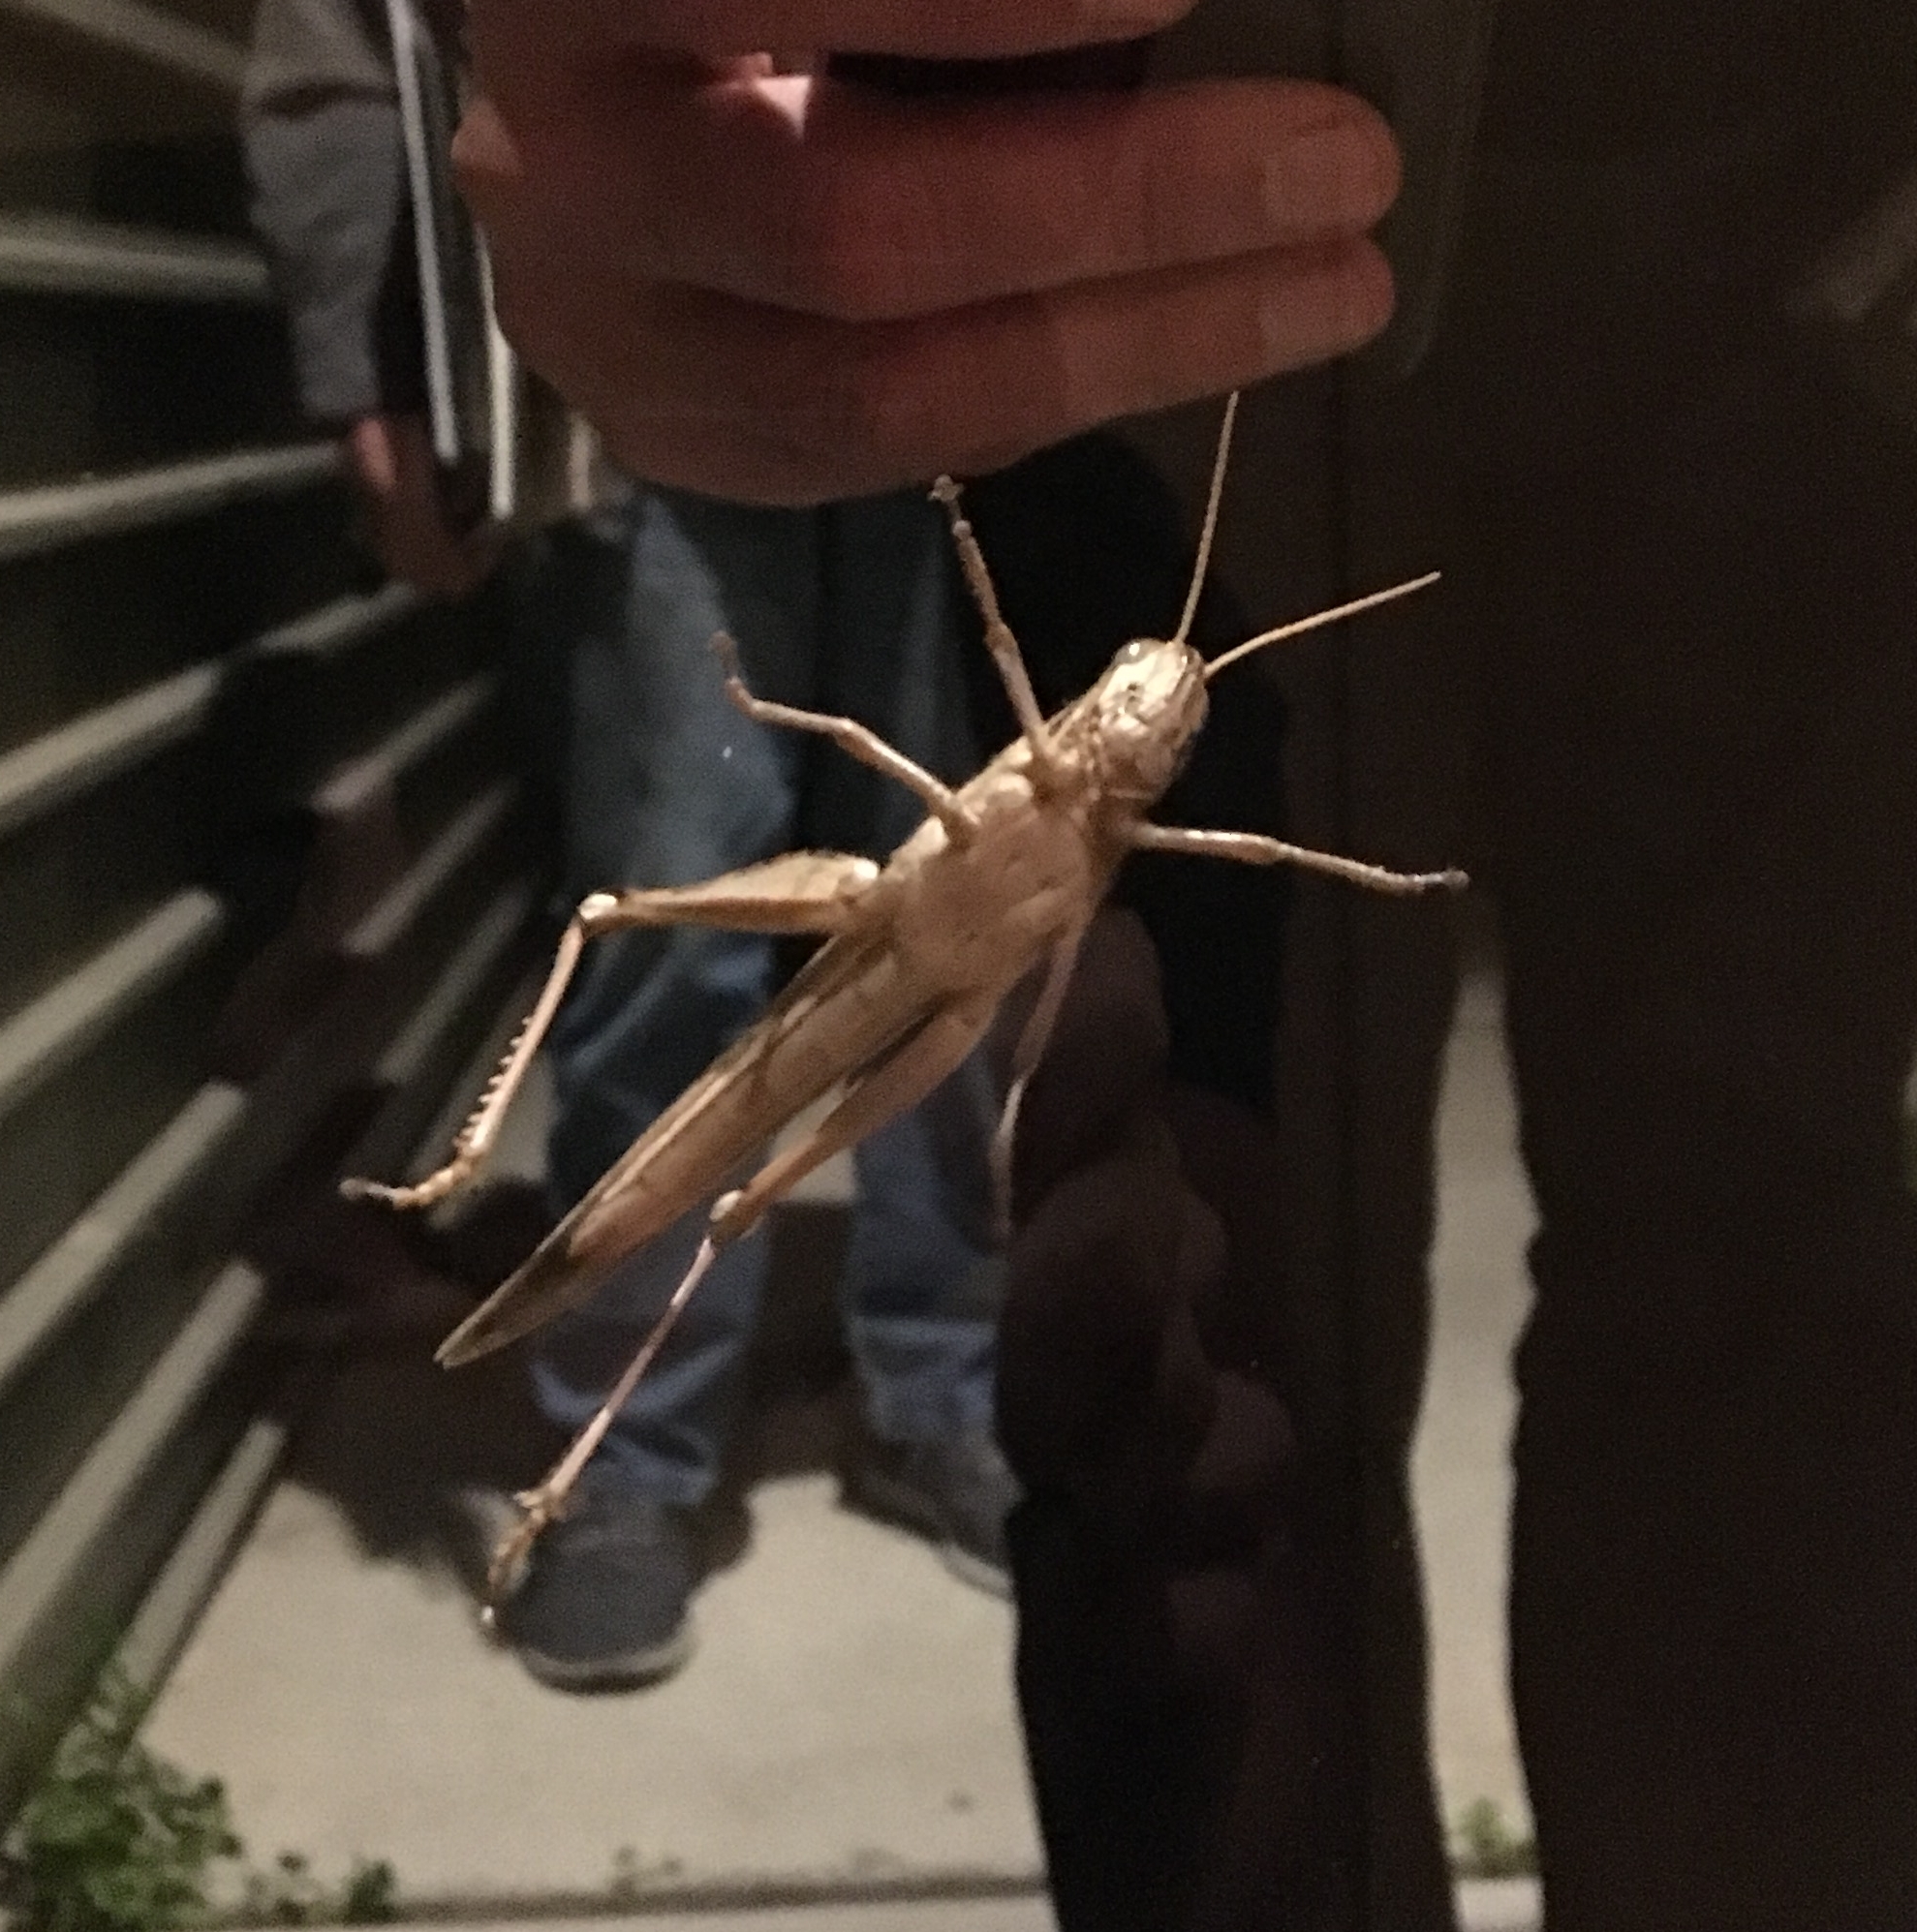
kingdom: Animalia
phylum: Arthropoda
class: Insecta
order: Orthoptera
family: Acrididae
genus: Schistocerca
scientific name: Schistocerca nitens
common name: Vagrant grasshopper
